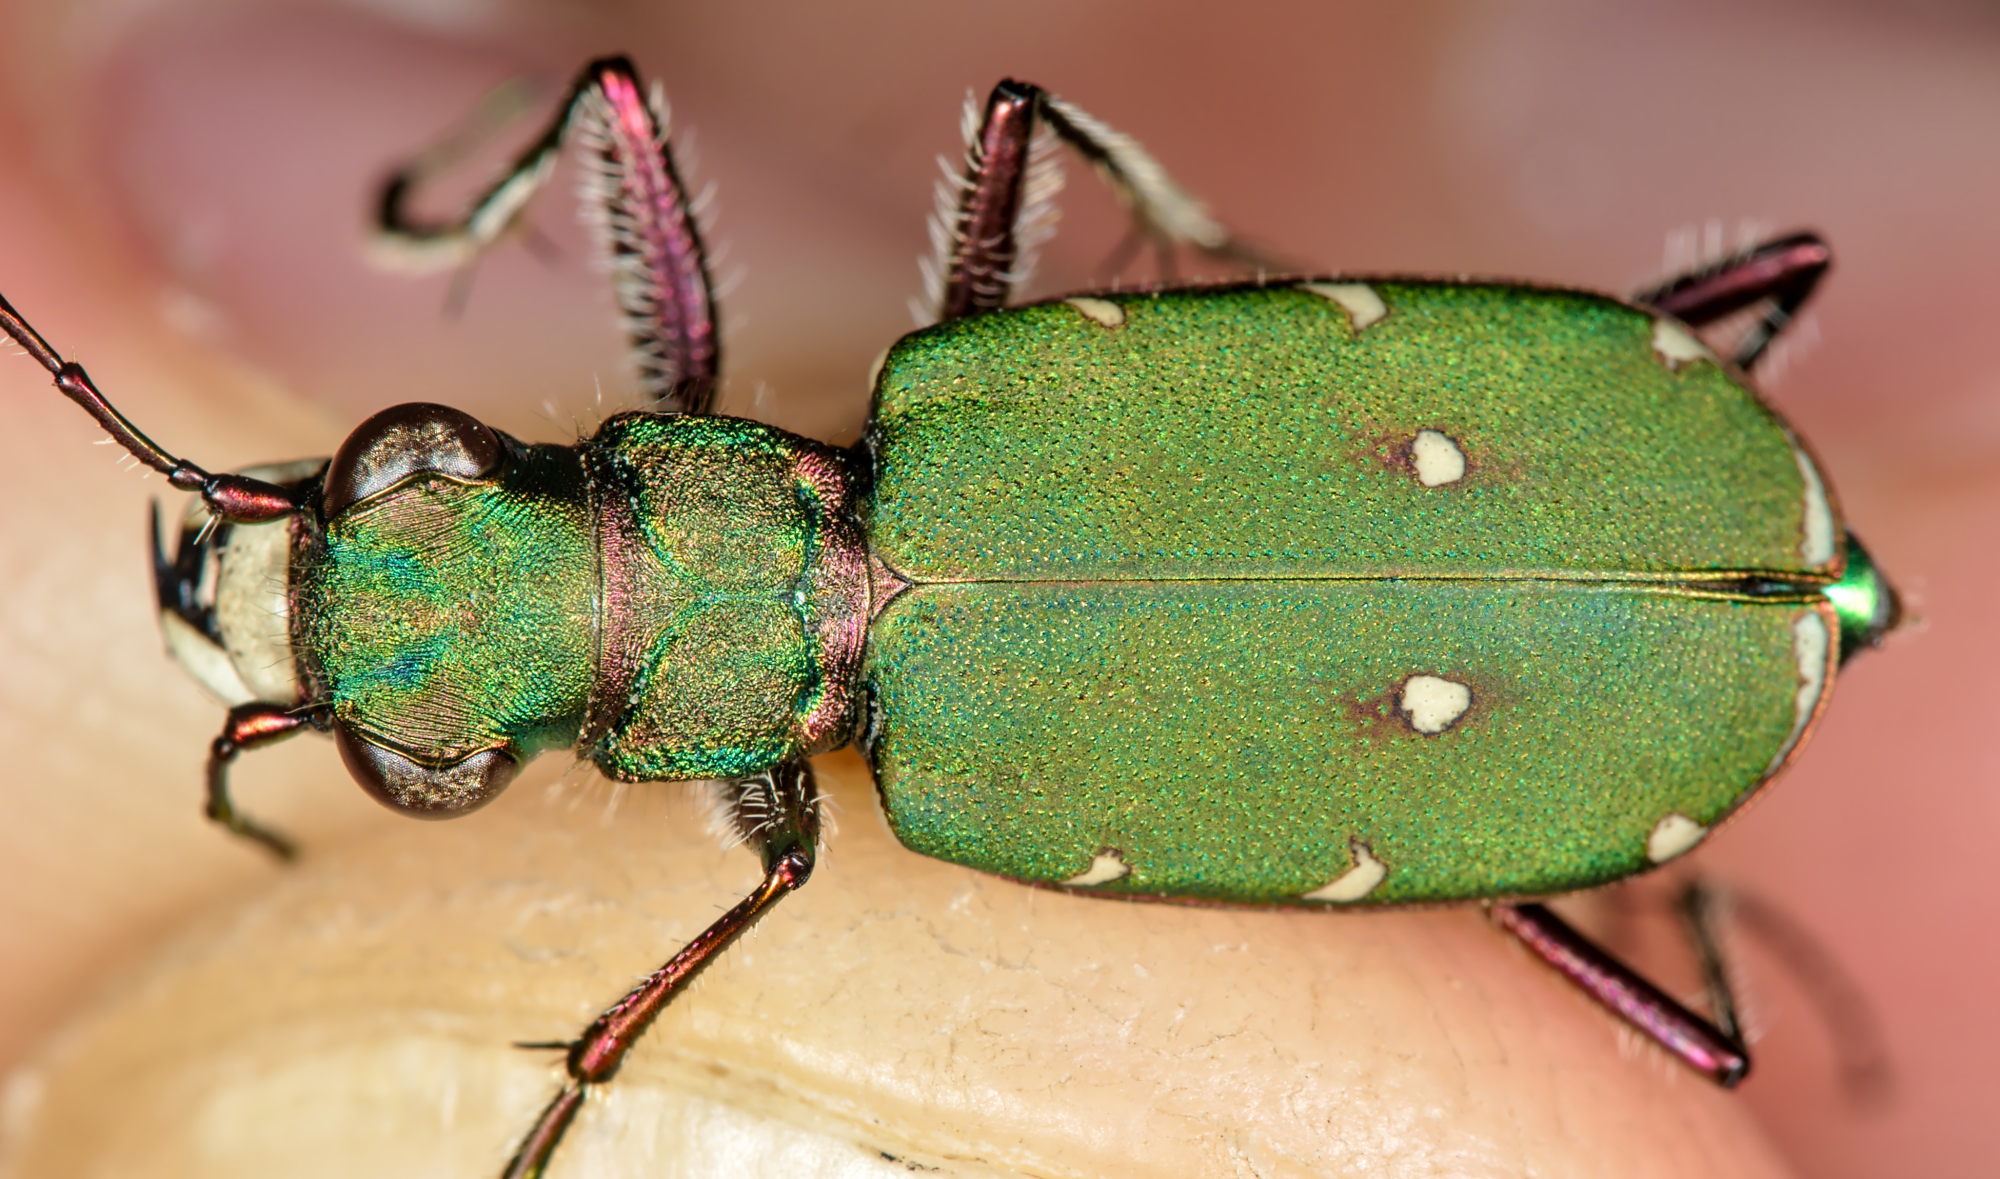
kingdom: Animalia
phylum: Arthropoda
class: Insecta
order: Coleoptera
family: Carabidae
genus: Cicindela
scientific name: Cicindela campestris
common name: Common tiger beetle
